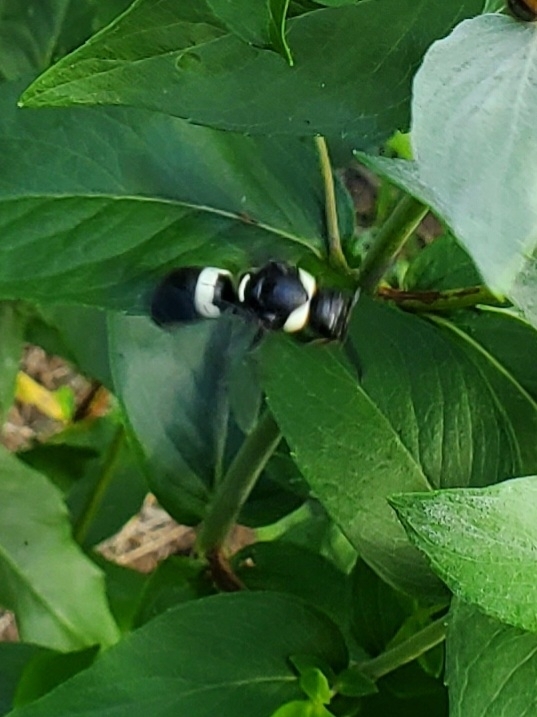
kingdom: Animalia
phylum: Arthropoda
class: Insecta
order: Hymenoptera
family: Eumenidae
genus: Monobia
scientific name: Monobia quadridens
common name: Four-toothed mason wasp
